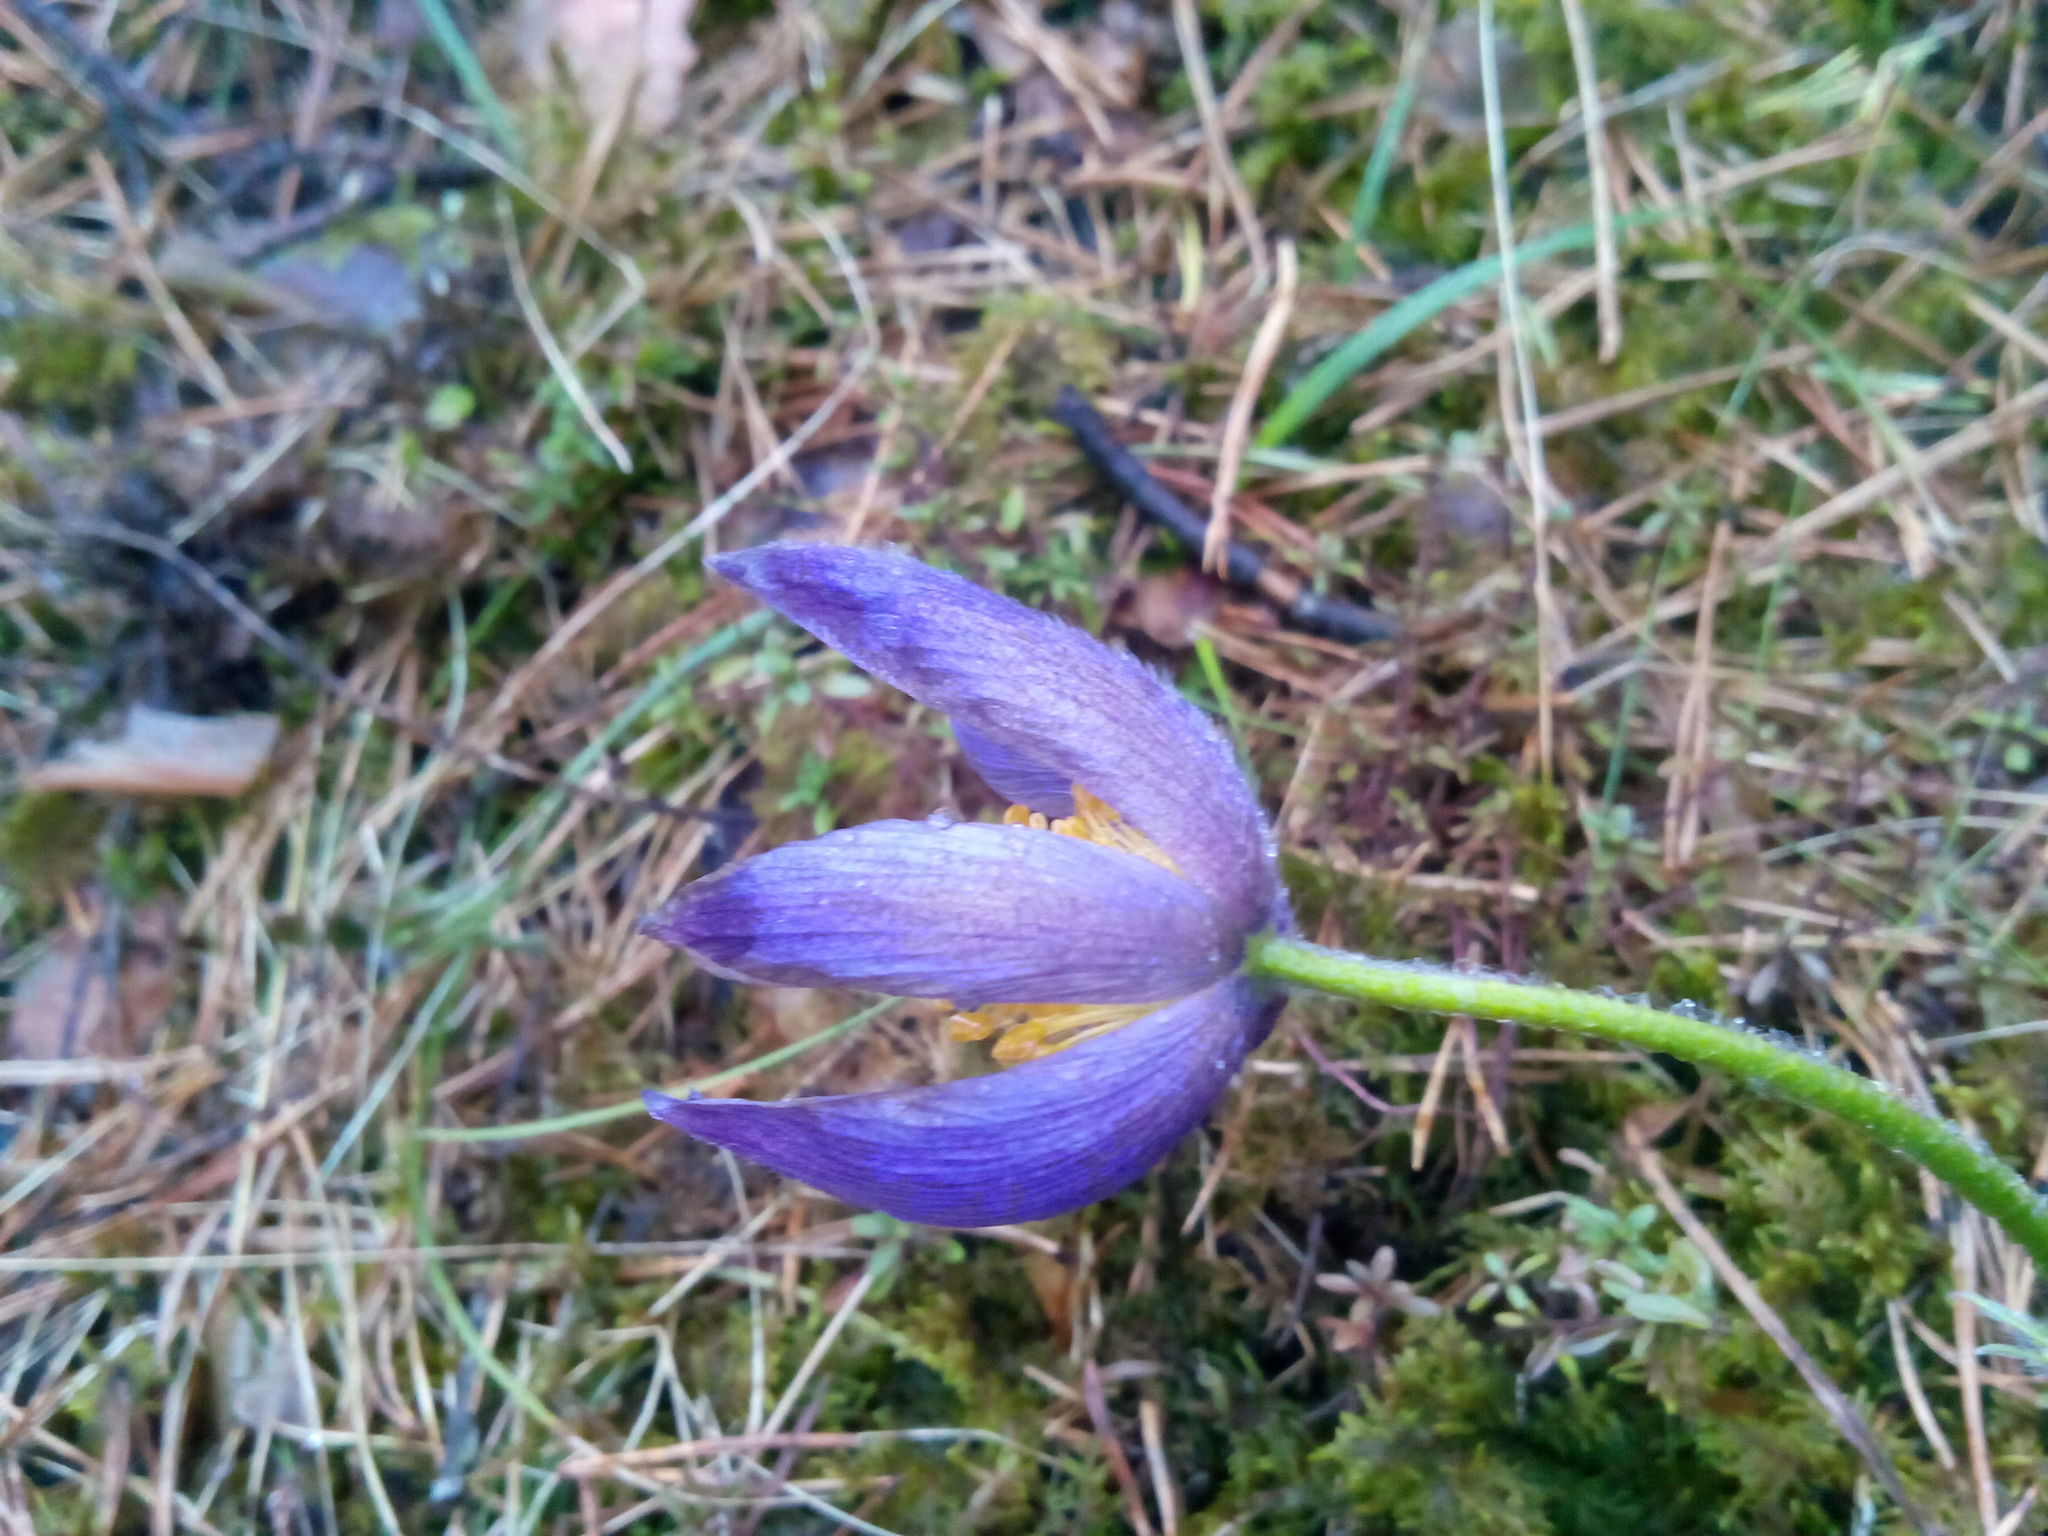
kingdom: Plantae
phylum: Tracheophyta
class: Magnoliopsida
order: Ranunculales
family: Ranunculaceae
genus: Pulsatilla
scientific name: Pulsatilla patens
